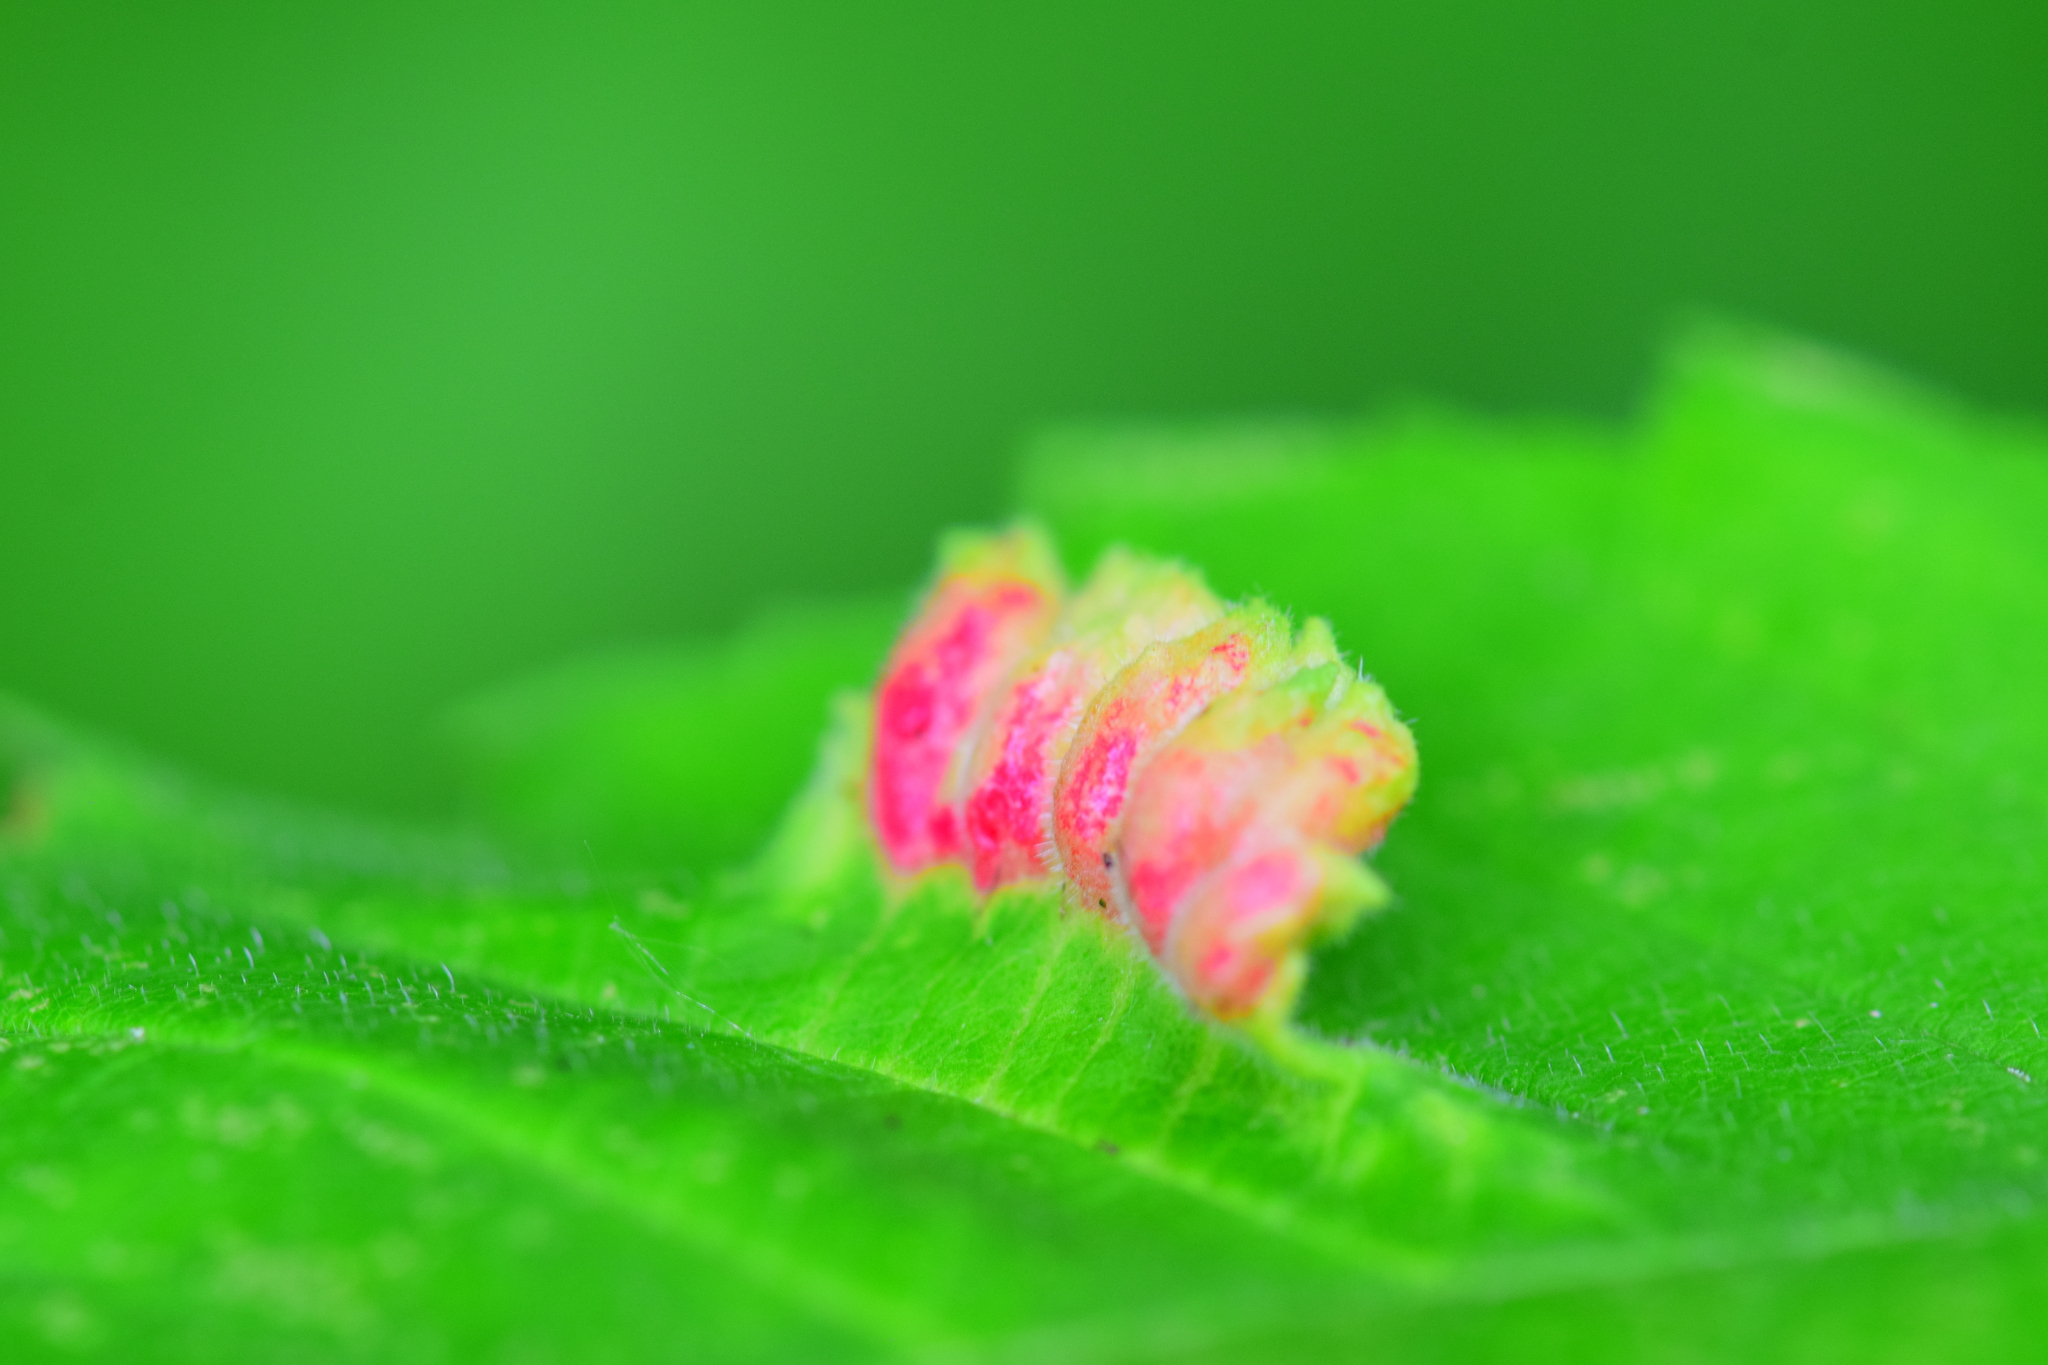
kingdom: Animalia
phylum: Arthropoda
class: Insecta
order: Hemiptera
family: Aphididae
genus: Colopha
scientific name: Colopha ulmicola
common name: Elm cockscombgall aphid
